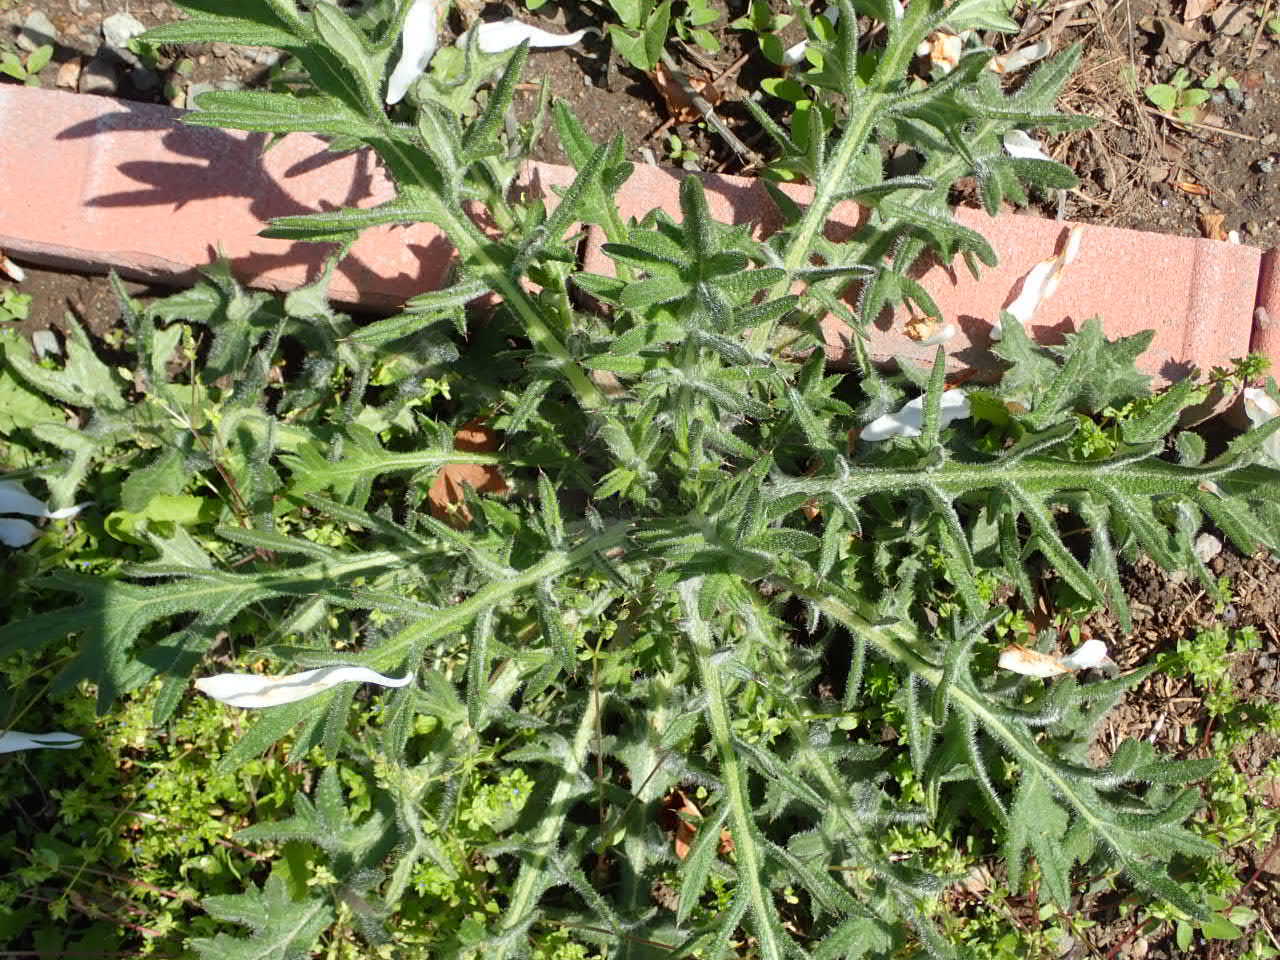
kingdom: Plantae
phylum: Tracheophyta
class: Magnoliopsida
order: Asterales
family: Asteraceae
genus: Cirsium
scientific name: Cirsium vulgare
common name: Bull thistle
